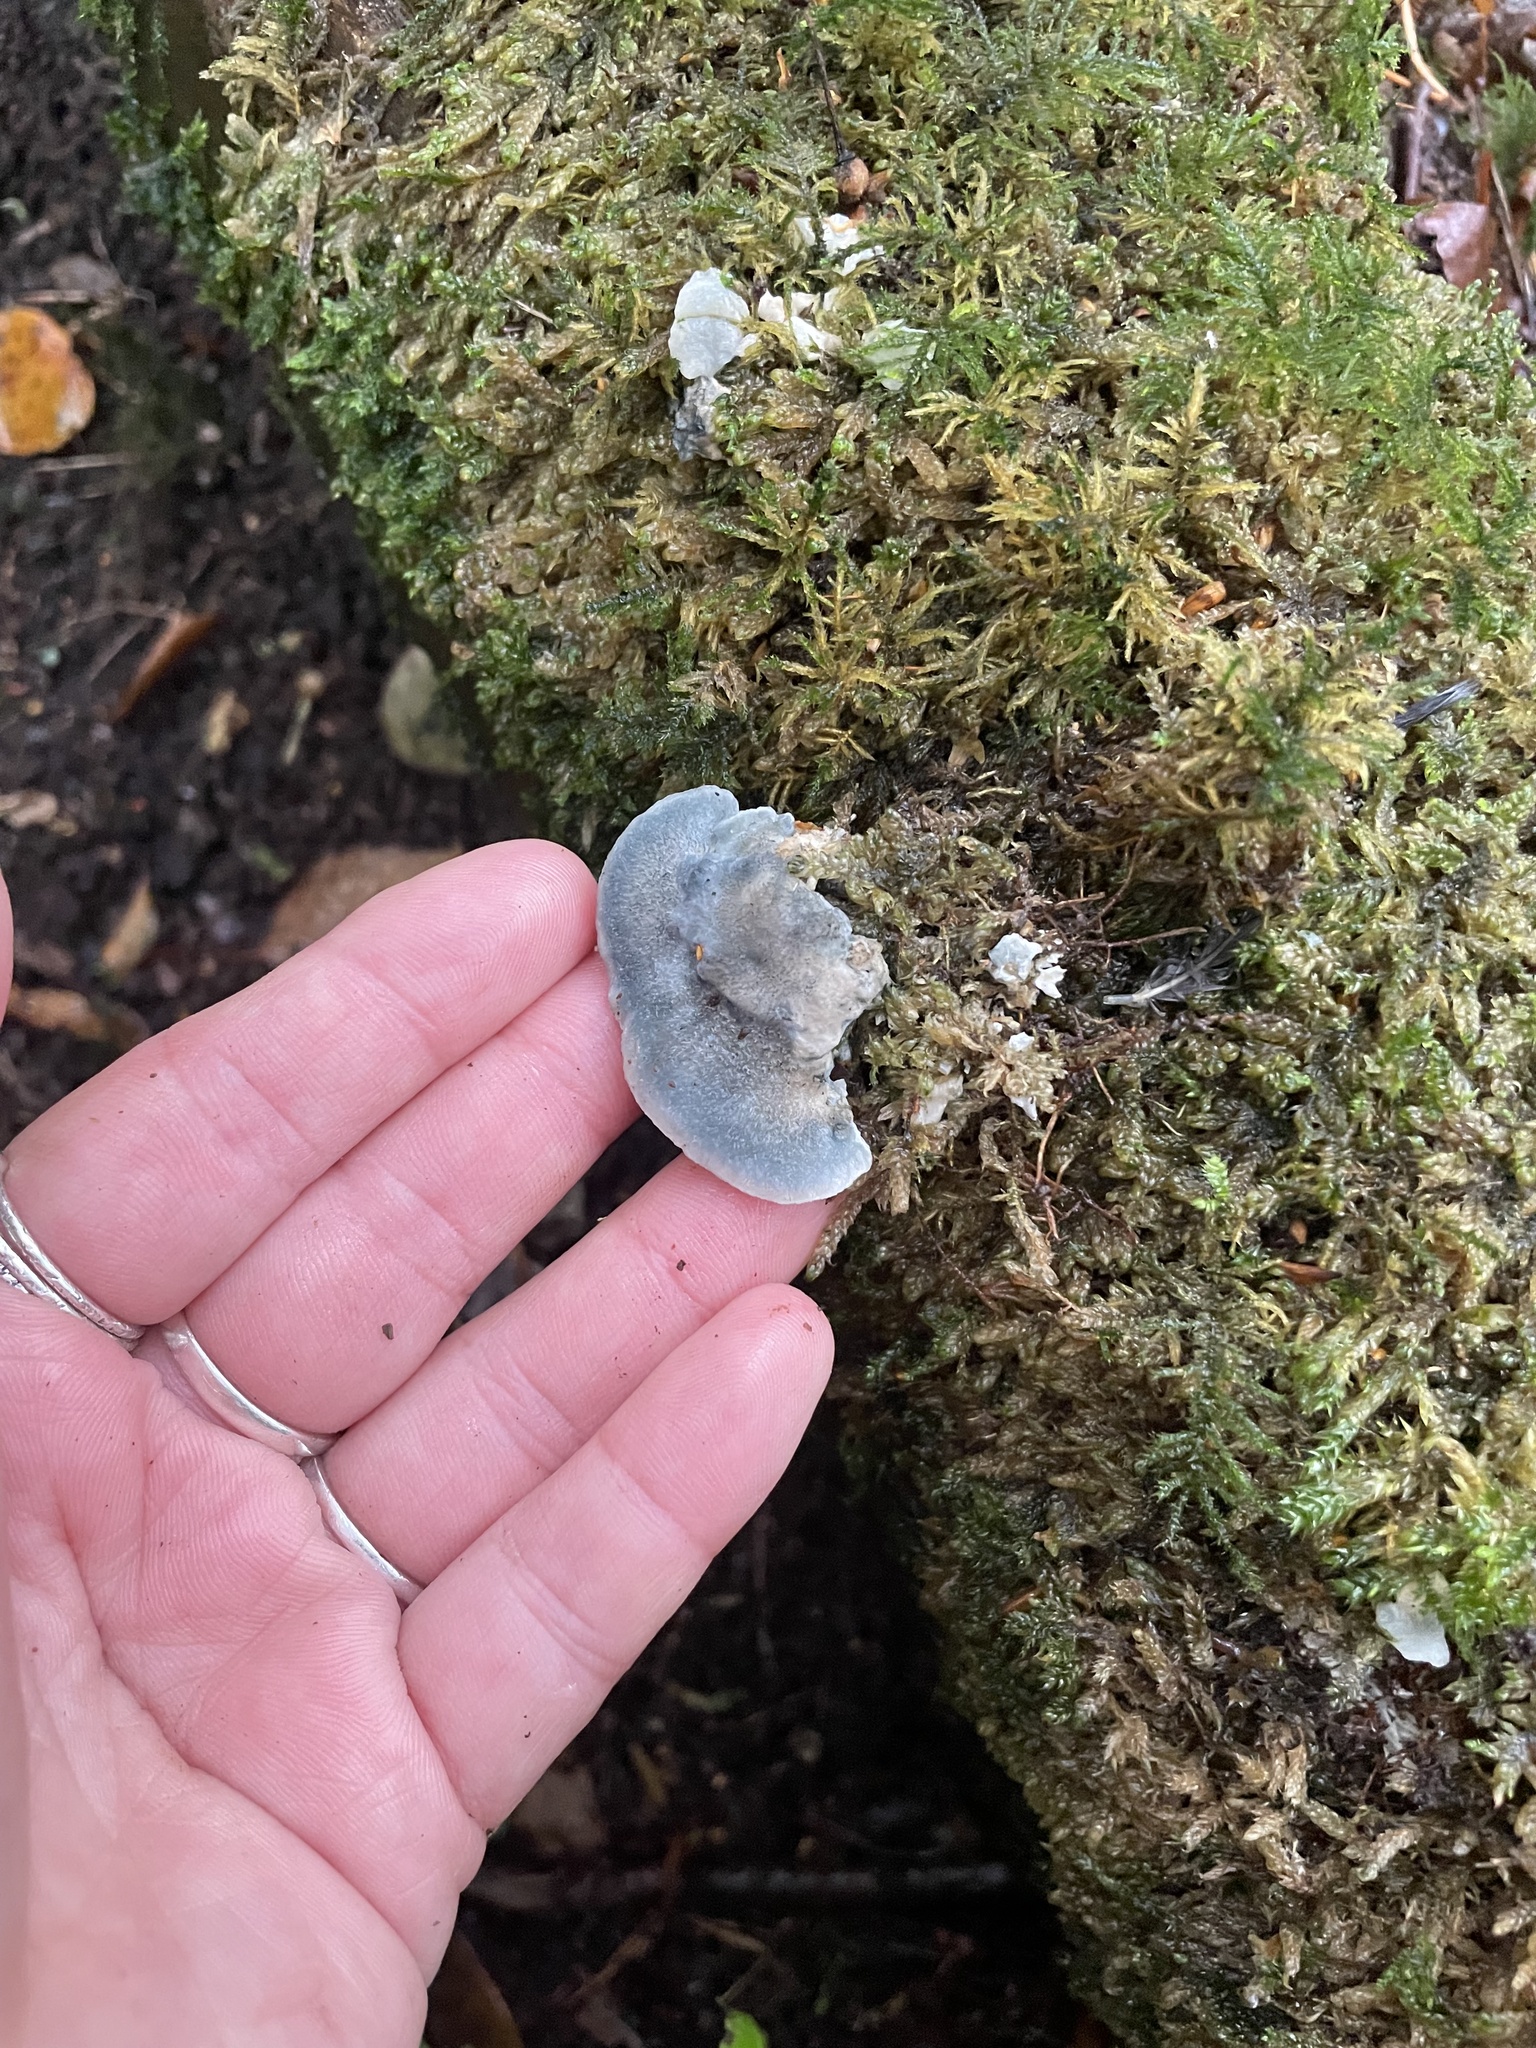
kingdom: Fungi
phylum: Basidiomycota
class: Agaricomycetes
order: Polyporales
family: Polyporaceae
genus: Cyanosporus
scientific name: Cyanosporus caesius
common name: Blue cheese polypore
